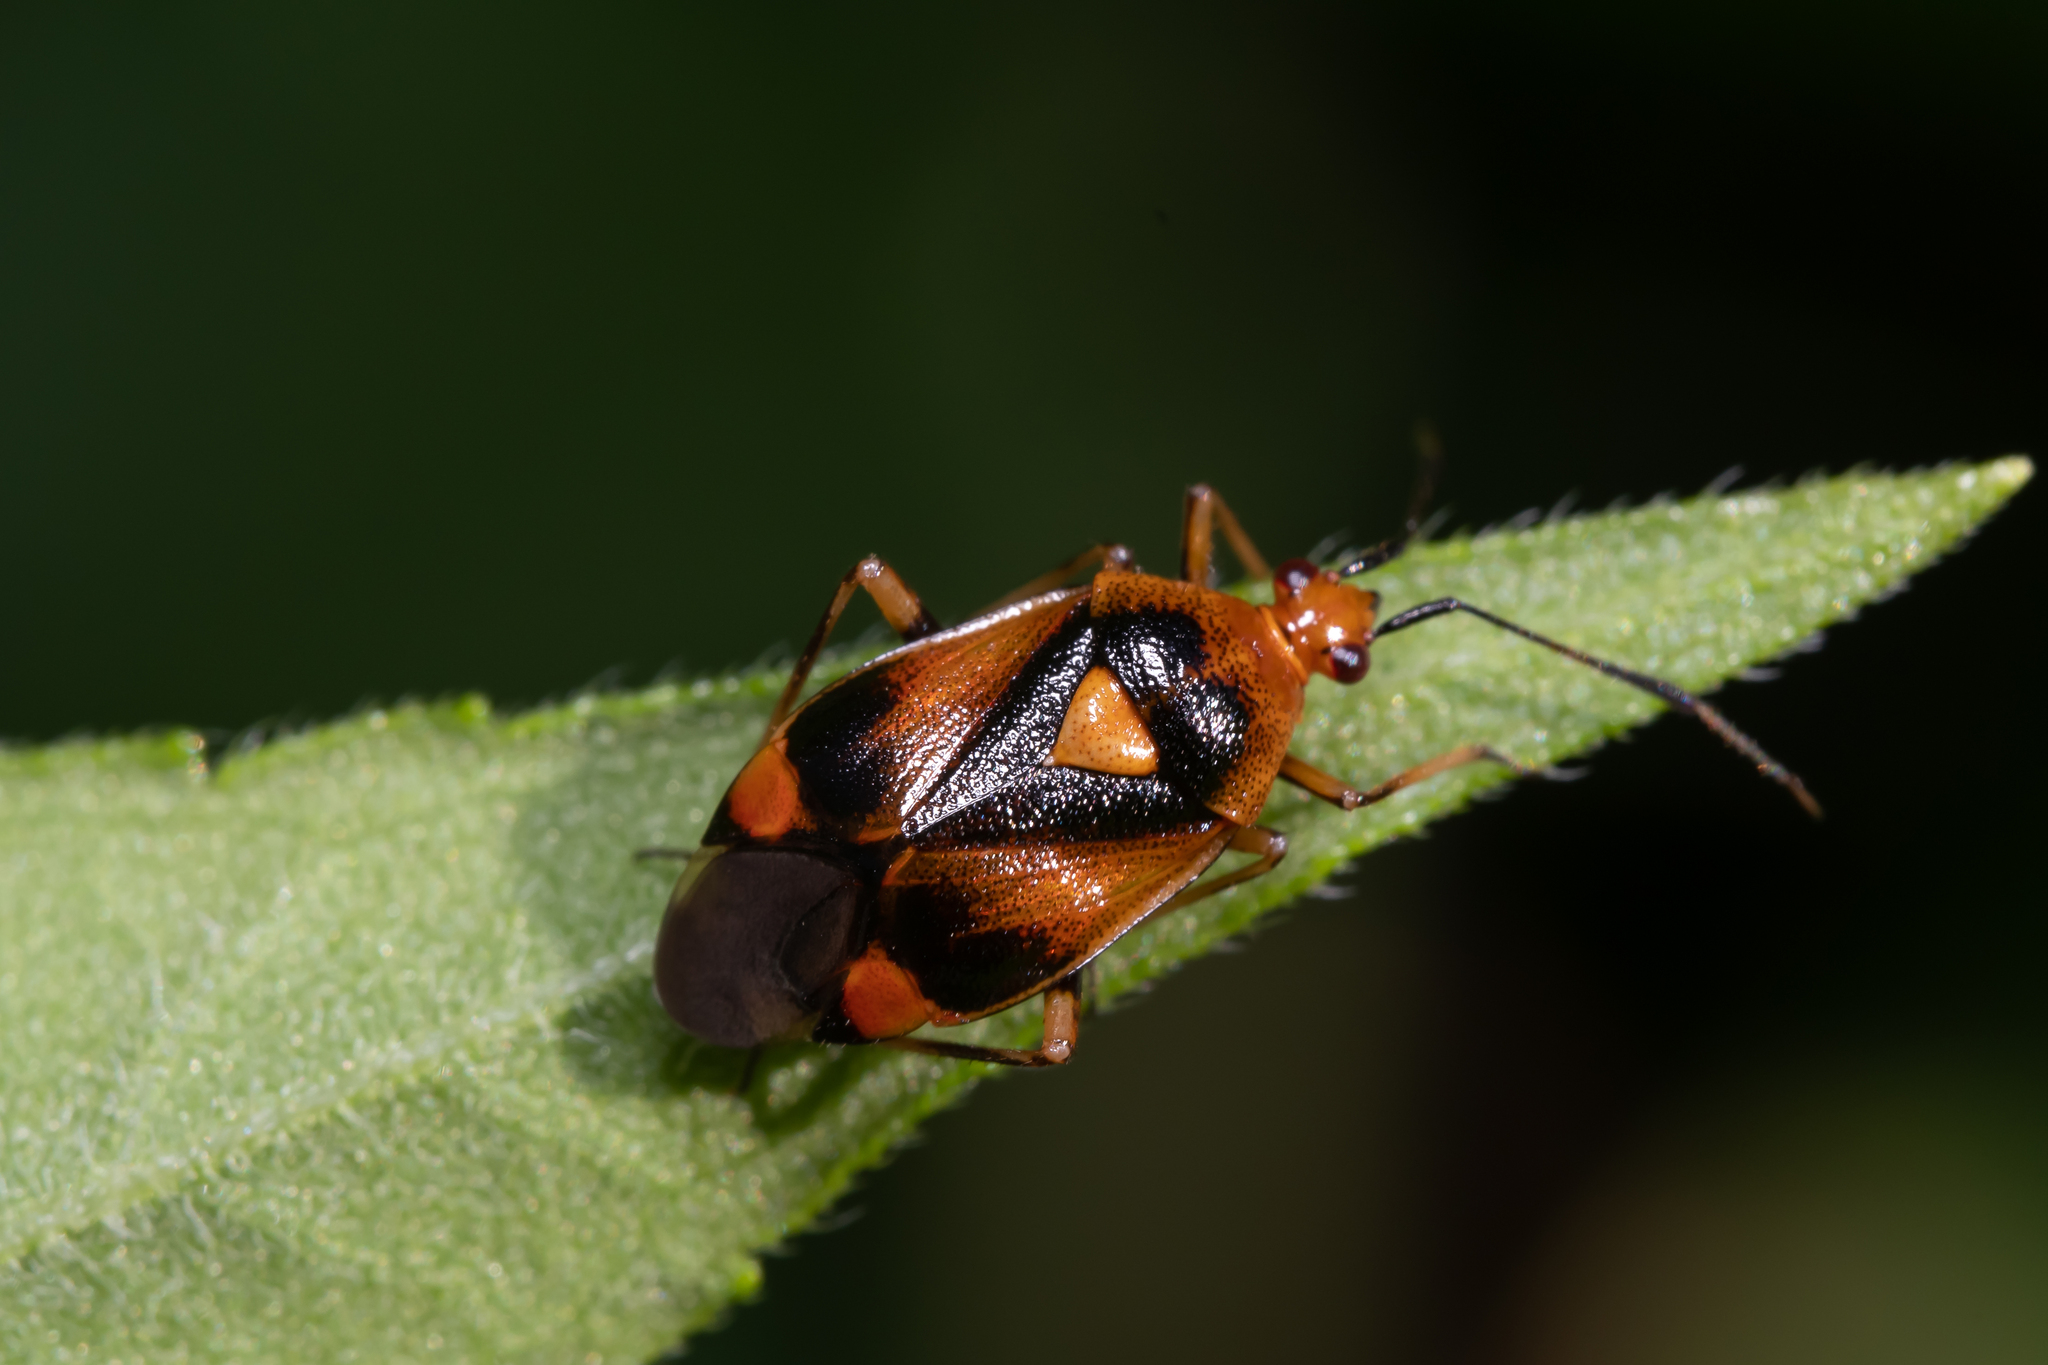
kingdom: Animalia
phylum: Arthropoda
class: Insecta
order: Hemiptera
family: Miridae
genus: Deraeocoris
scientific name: Deraeocoris ruber
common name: Plant bug
